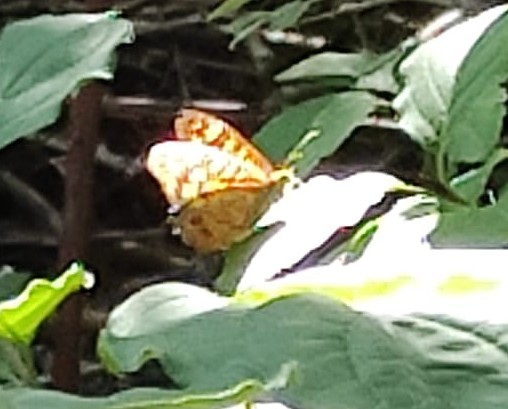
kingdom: Animalia
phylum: Arthropoda
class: Insecta
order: Lepidoptera
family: Nymphalidae
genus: Pararge
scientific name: Pararge aegeria
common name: Speckled wood
